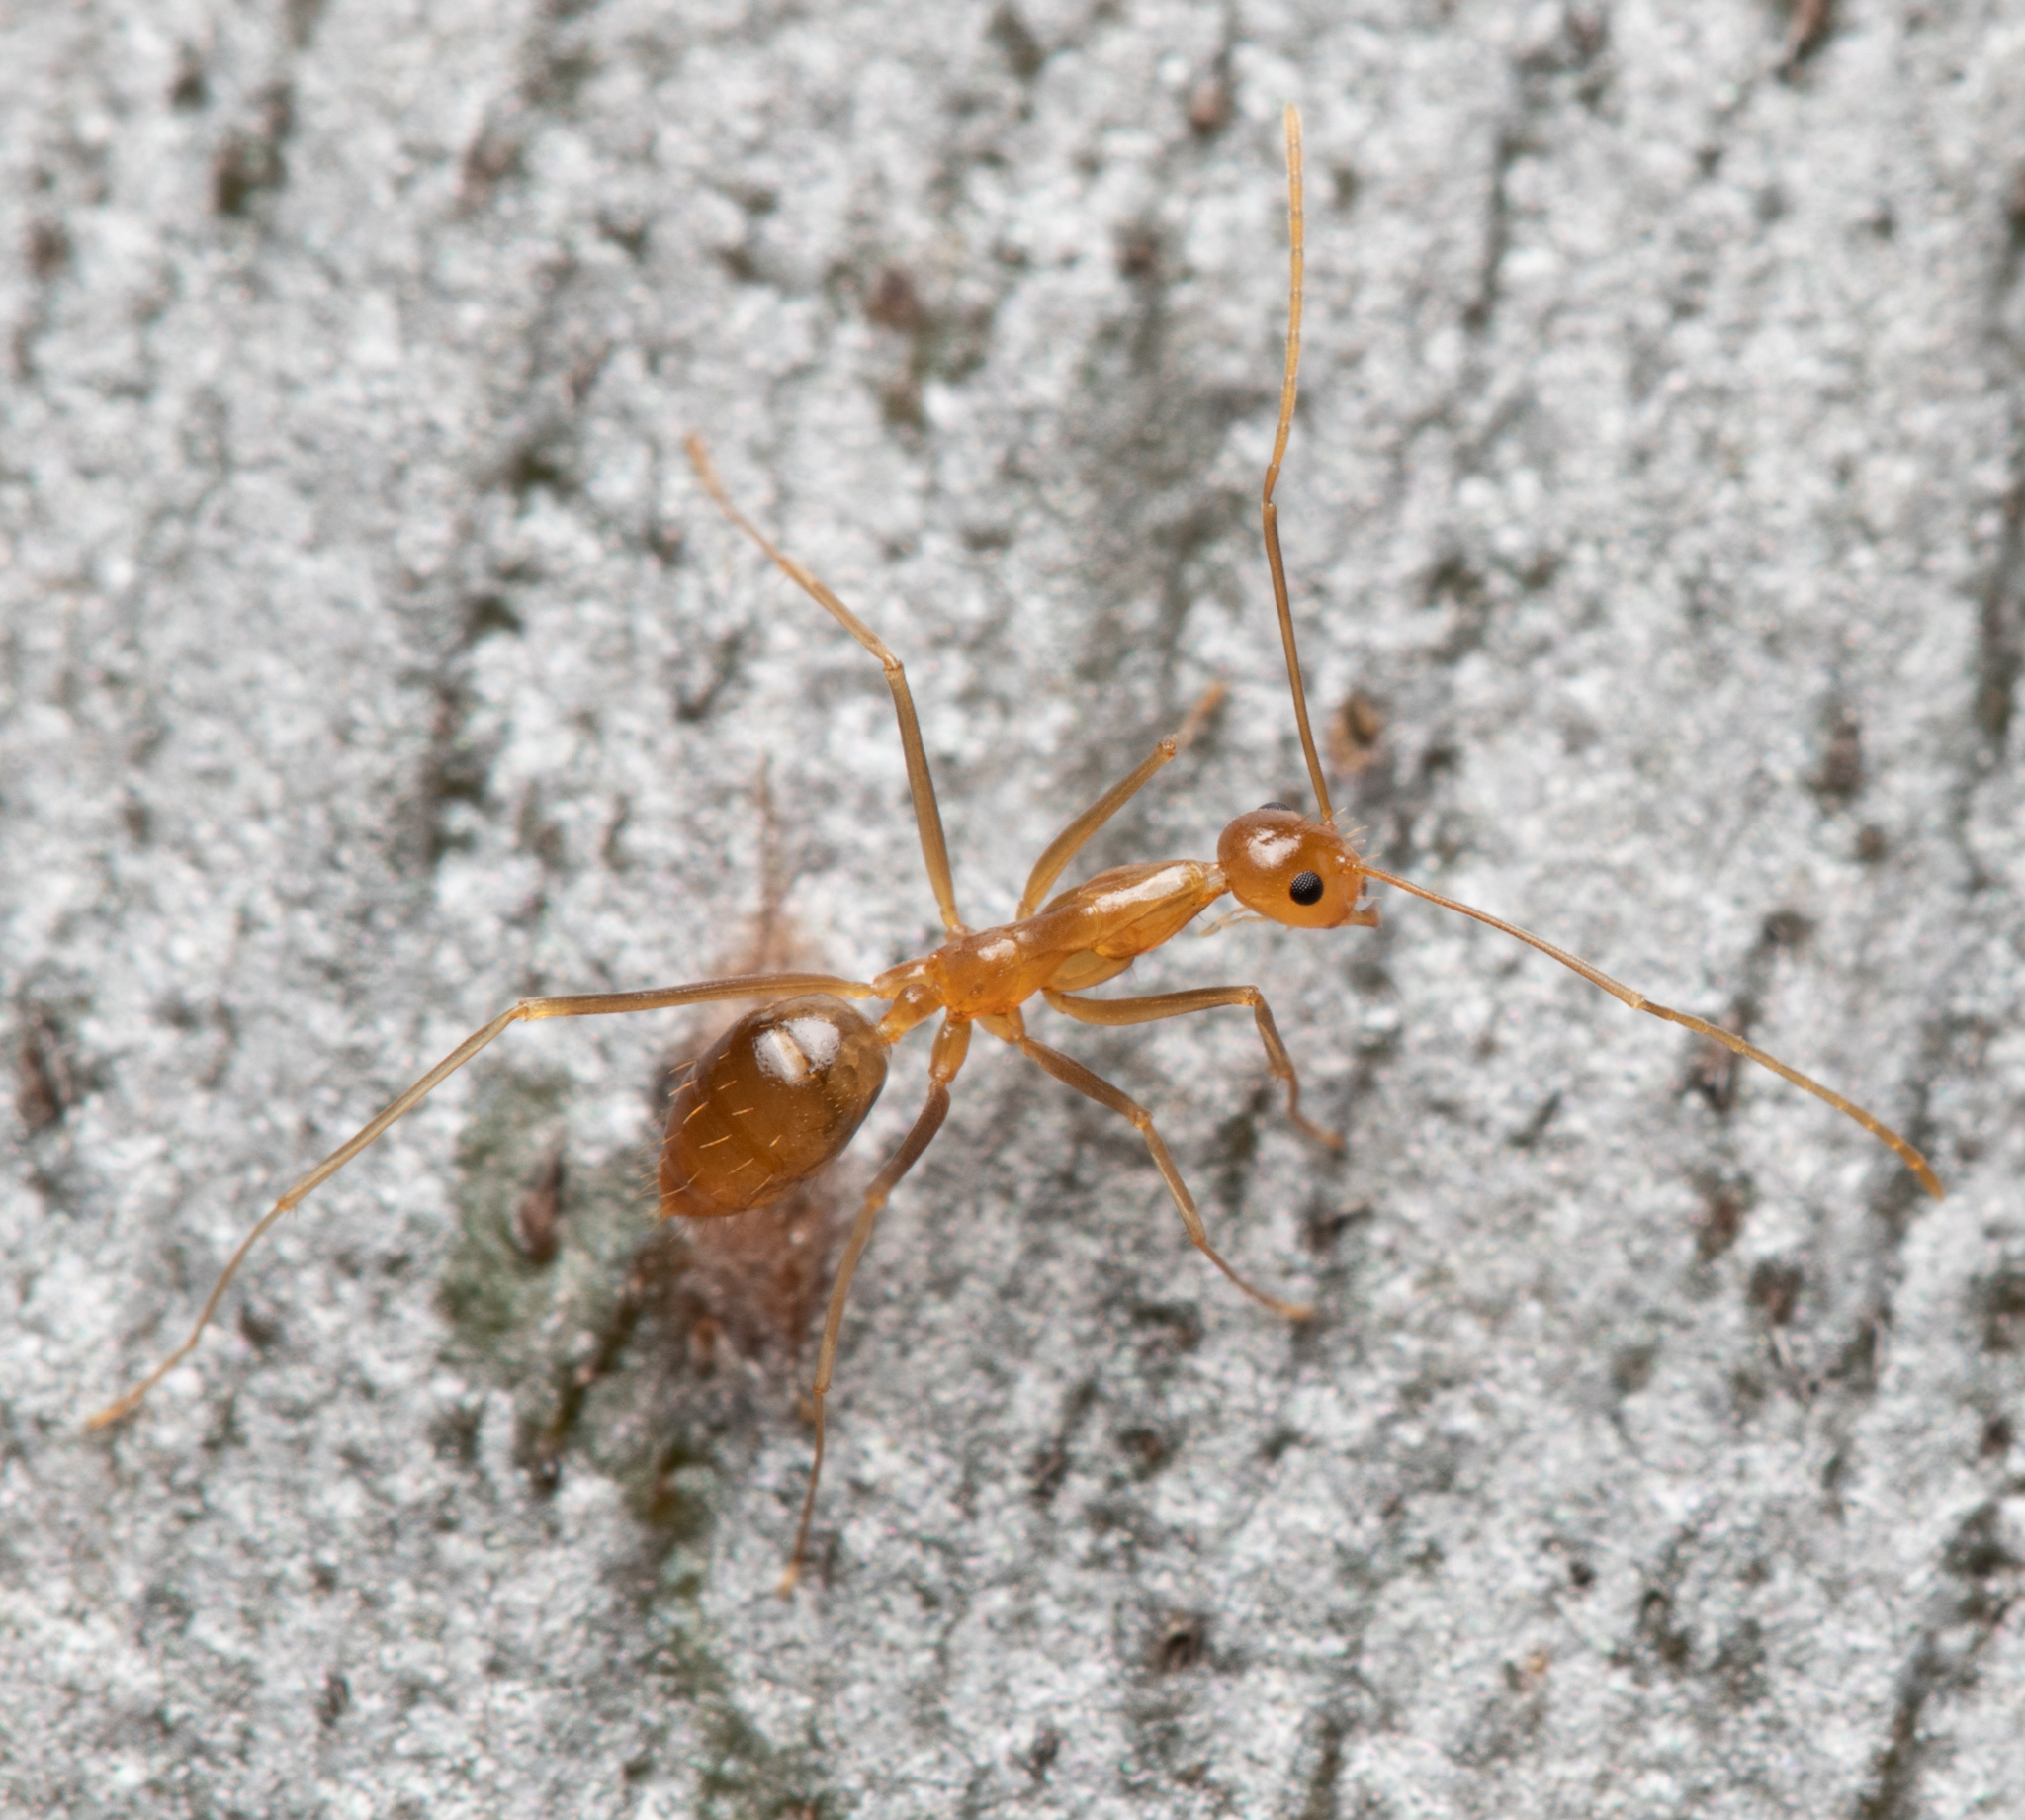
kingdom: Animalia
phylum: Arthropoda
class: Insecta
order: Hymenoptera
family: Formicidae
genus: Anoplolepis
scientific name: Anoplolepis gracilipes
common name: Ant
